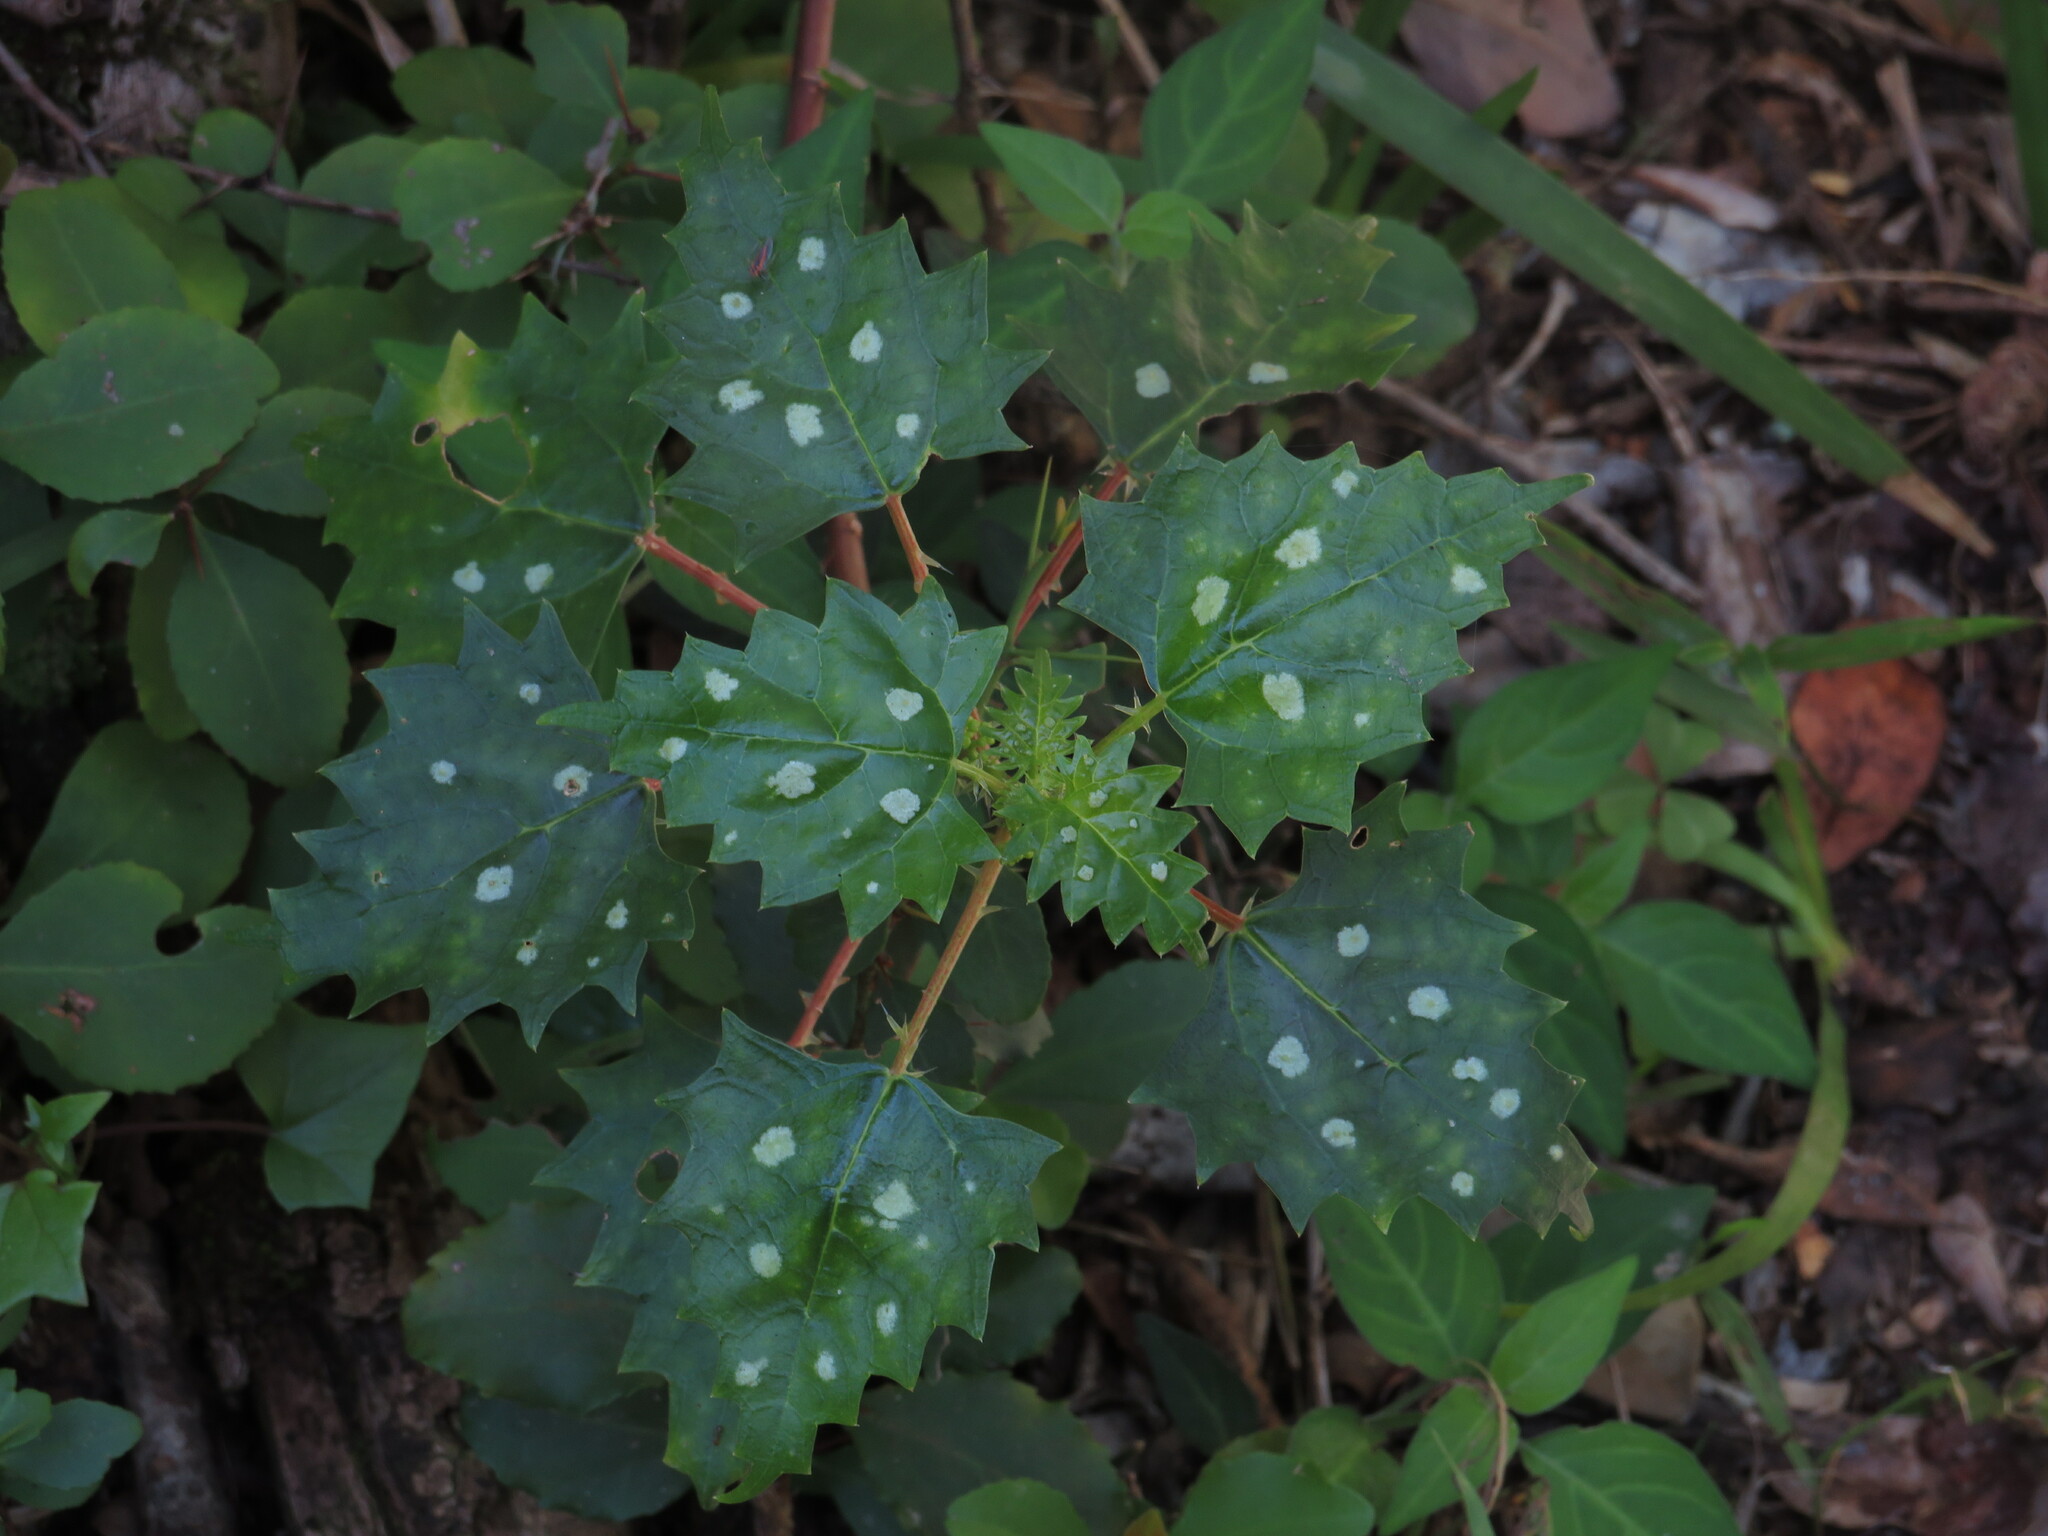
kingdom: Plantae
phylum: Tracheophyta
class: Magnoliopsida
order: Rosales
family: Urticaceae
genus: Laportea
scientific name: Laportea grossa
